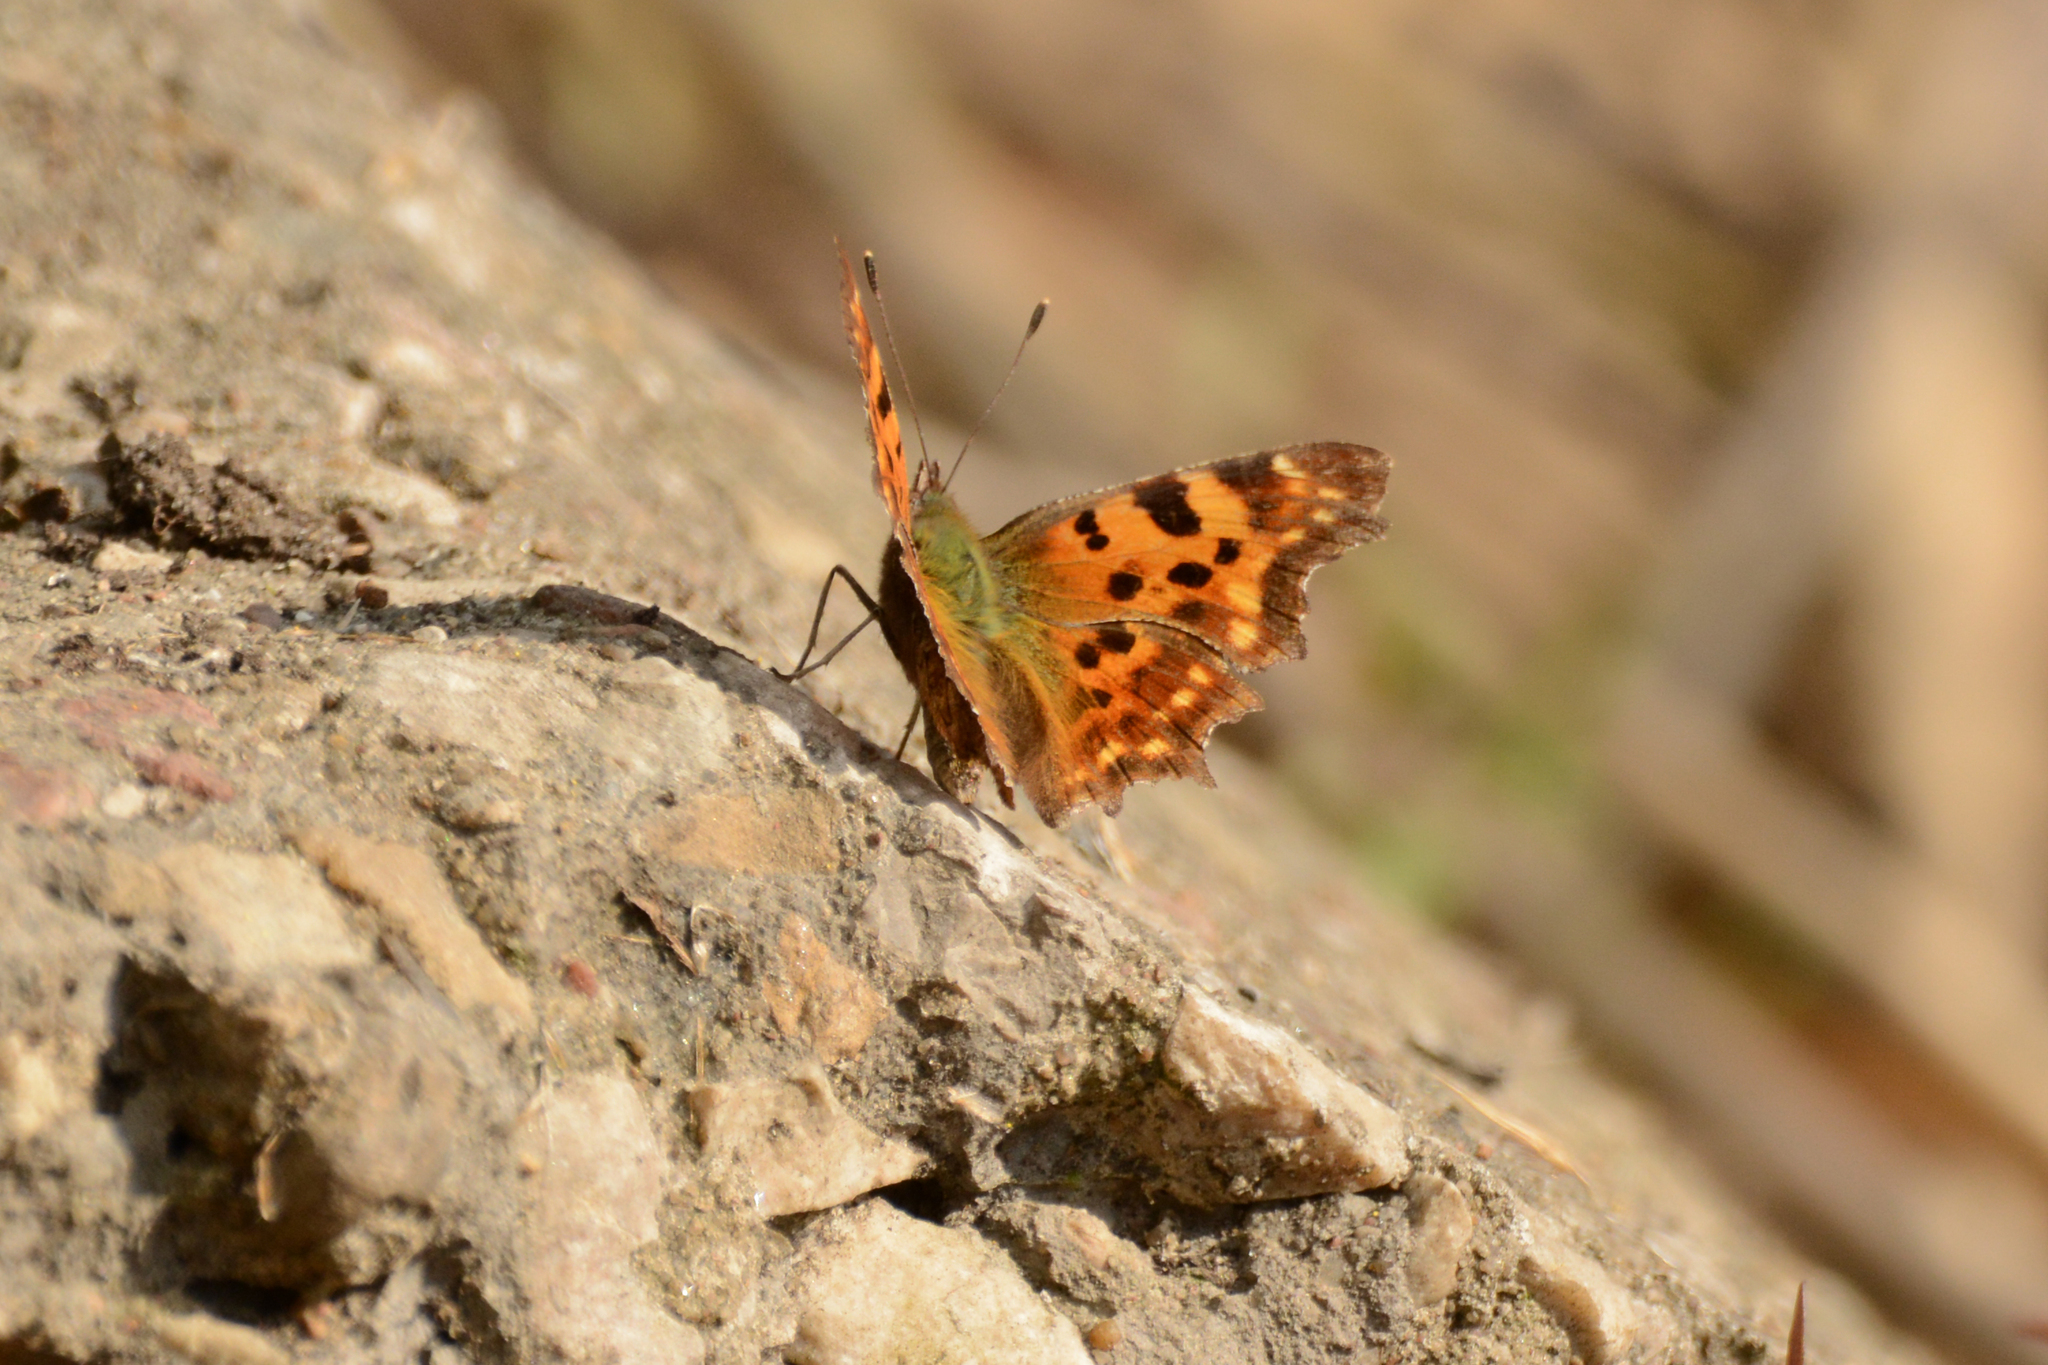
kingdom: Animalia
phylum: Arthropoda
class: Insecta
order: Lepidoptera
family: Nymphalidae
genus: Polygonia
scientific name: Polygonia c-album
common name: Comma
